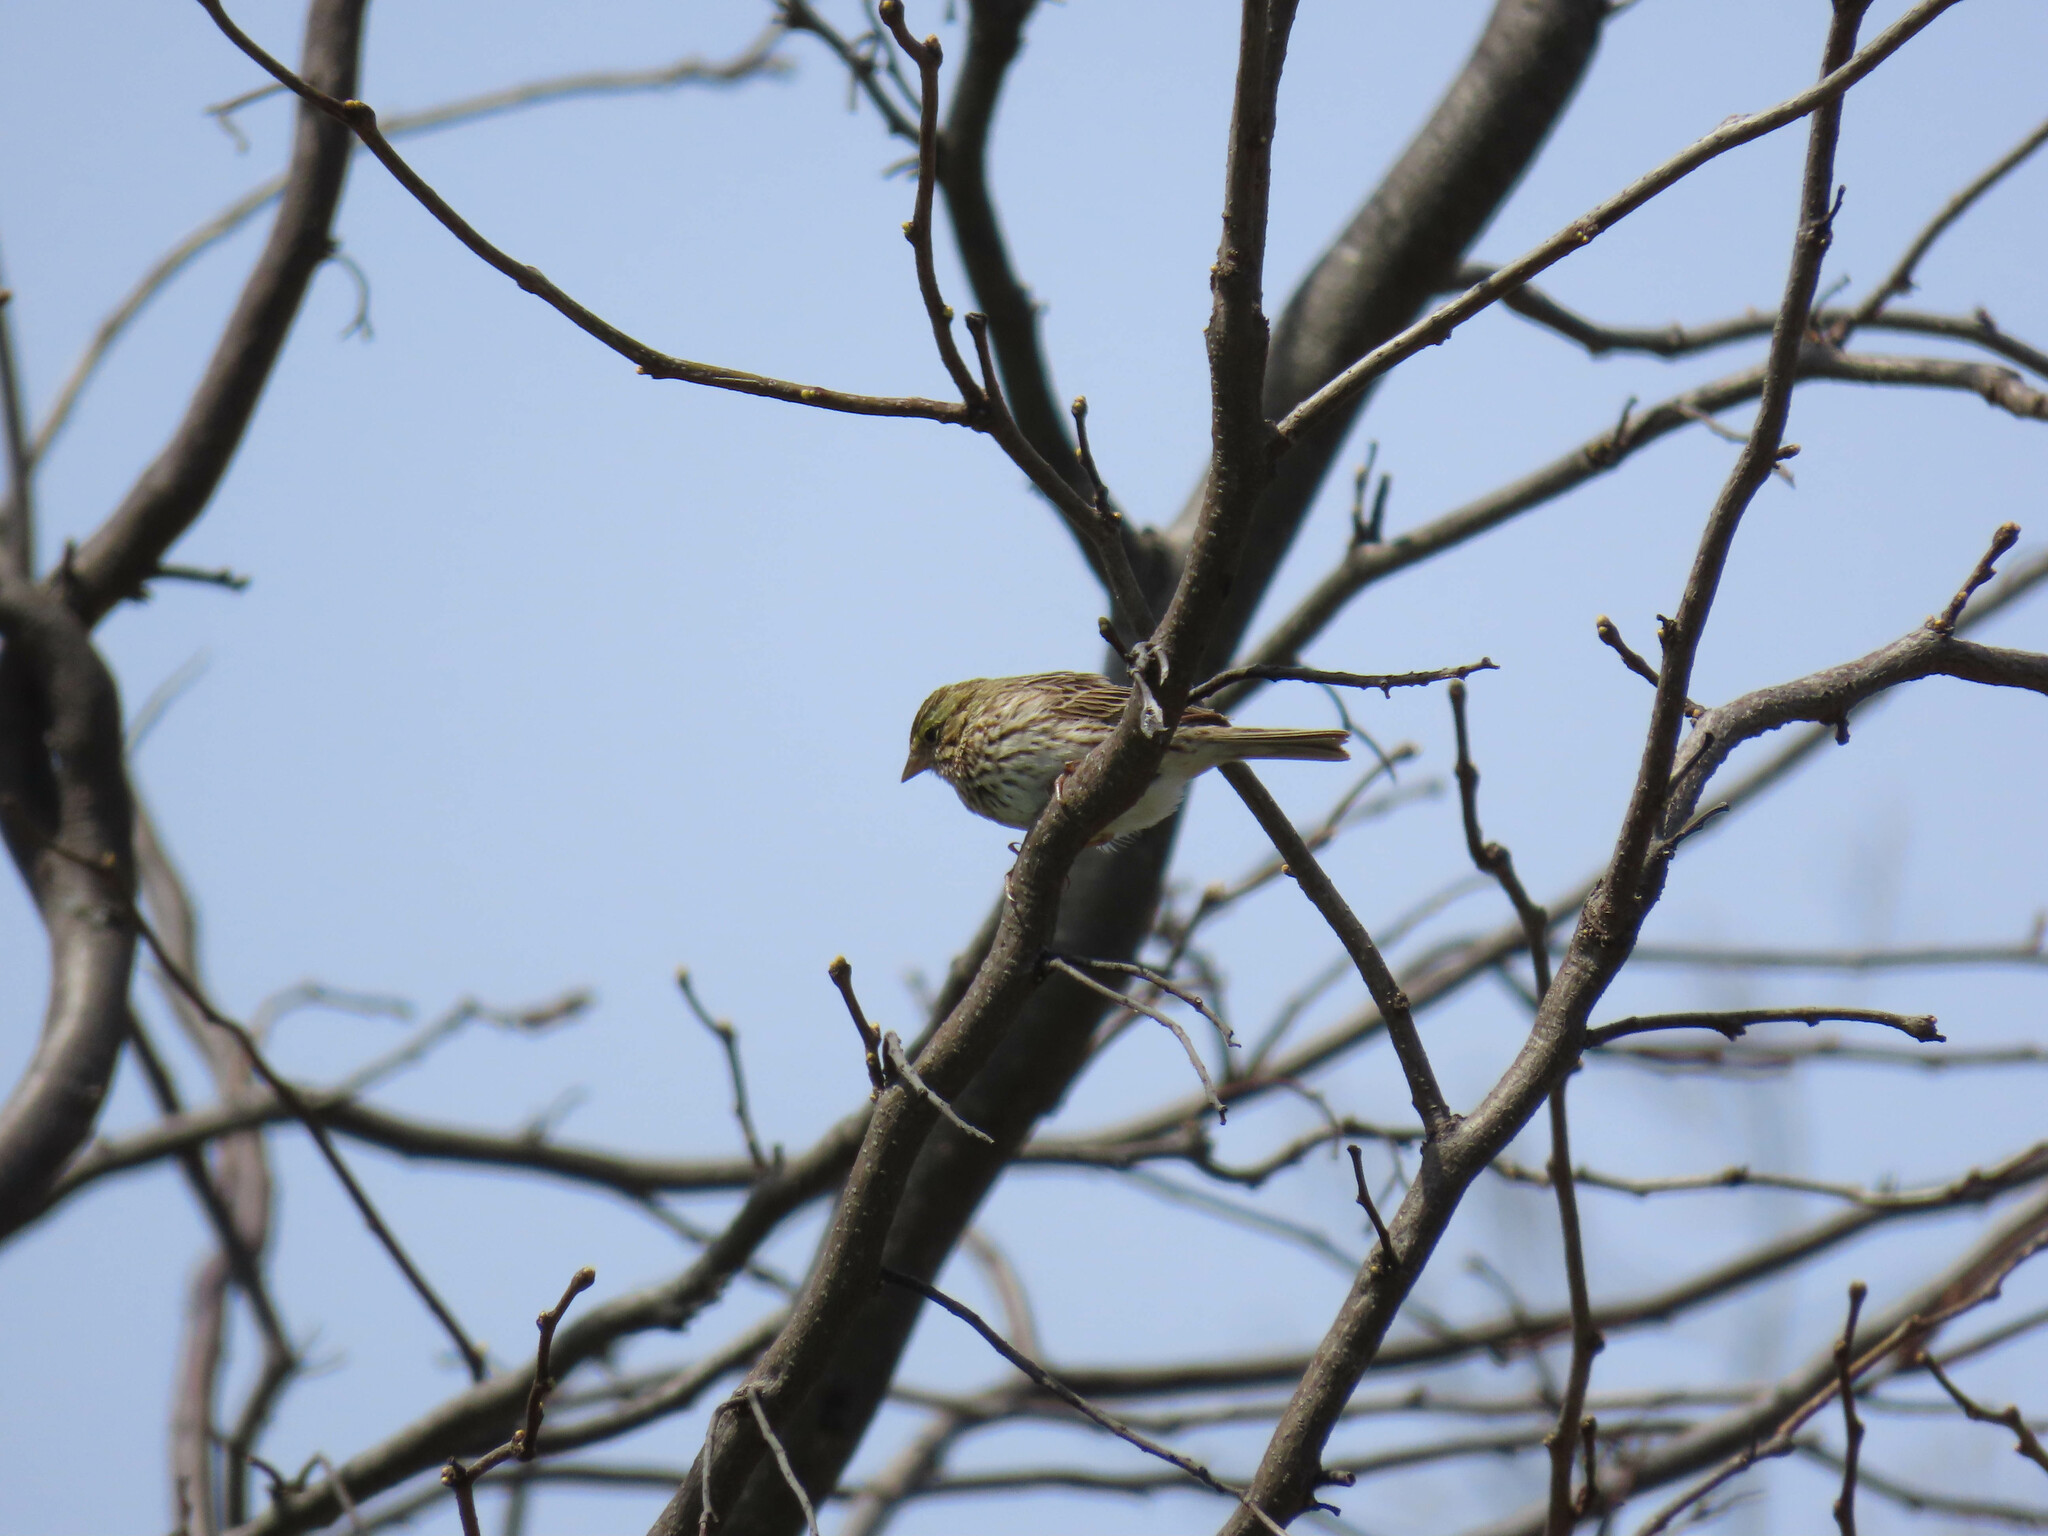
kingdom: Animalia
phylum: Chordata
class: Aves
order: Passeriformes
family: Passerellidae
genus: Passerculus
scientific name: Passerculus sandwichensis
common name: Savannah sparrow
